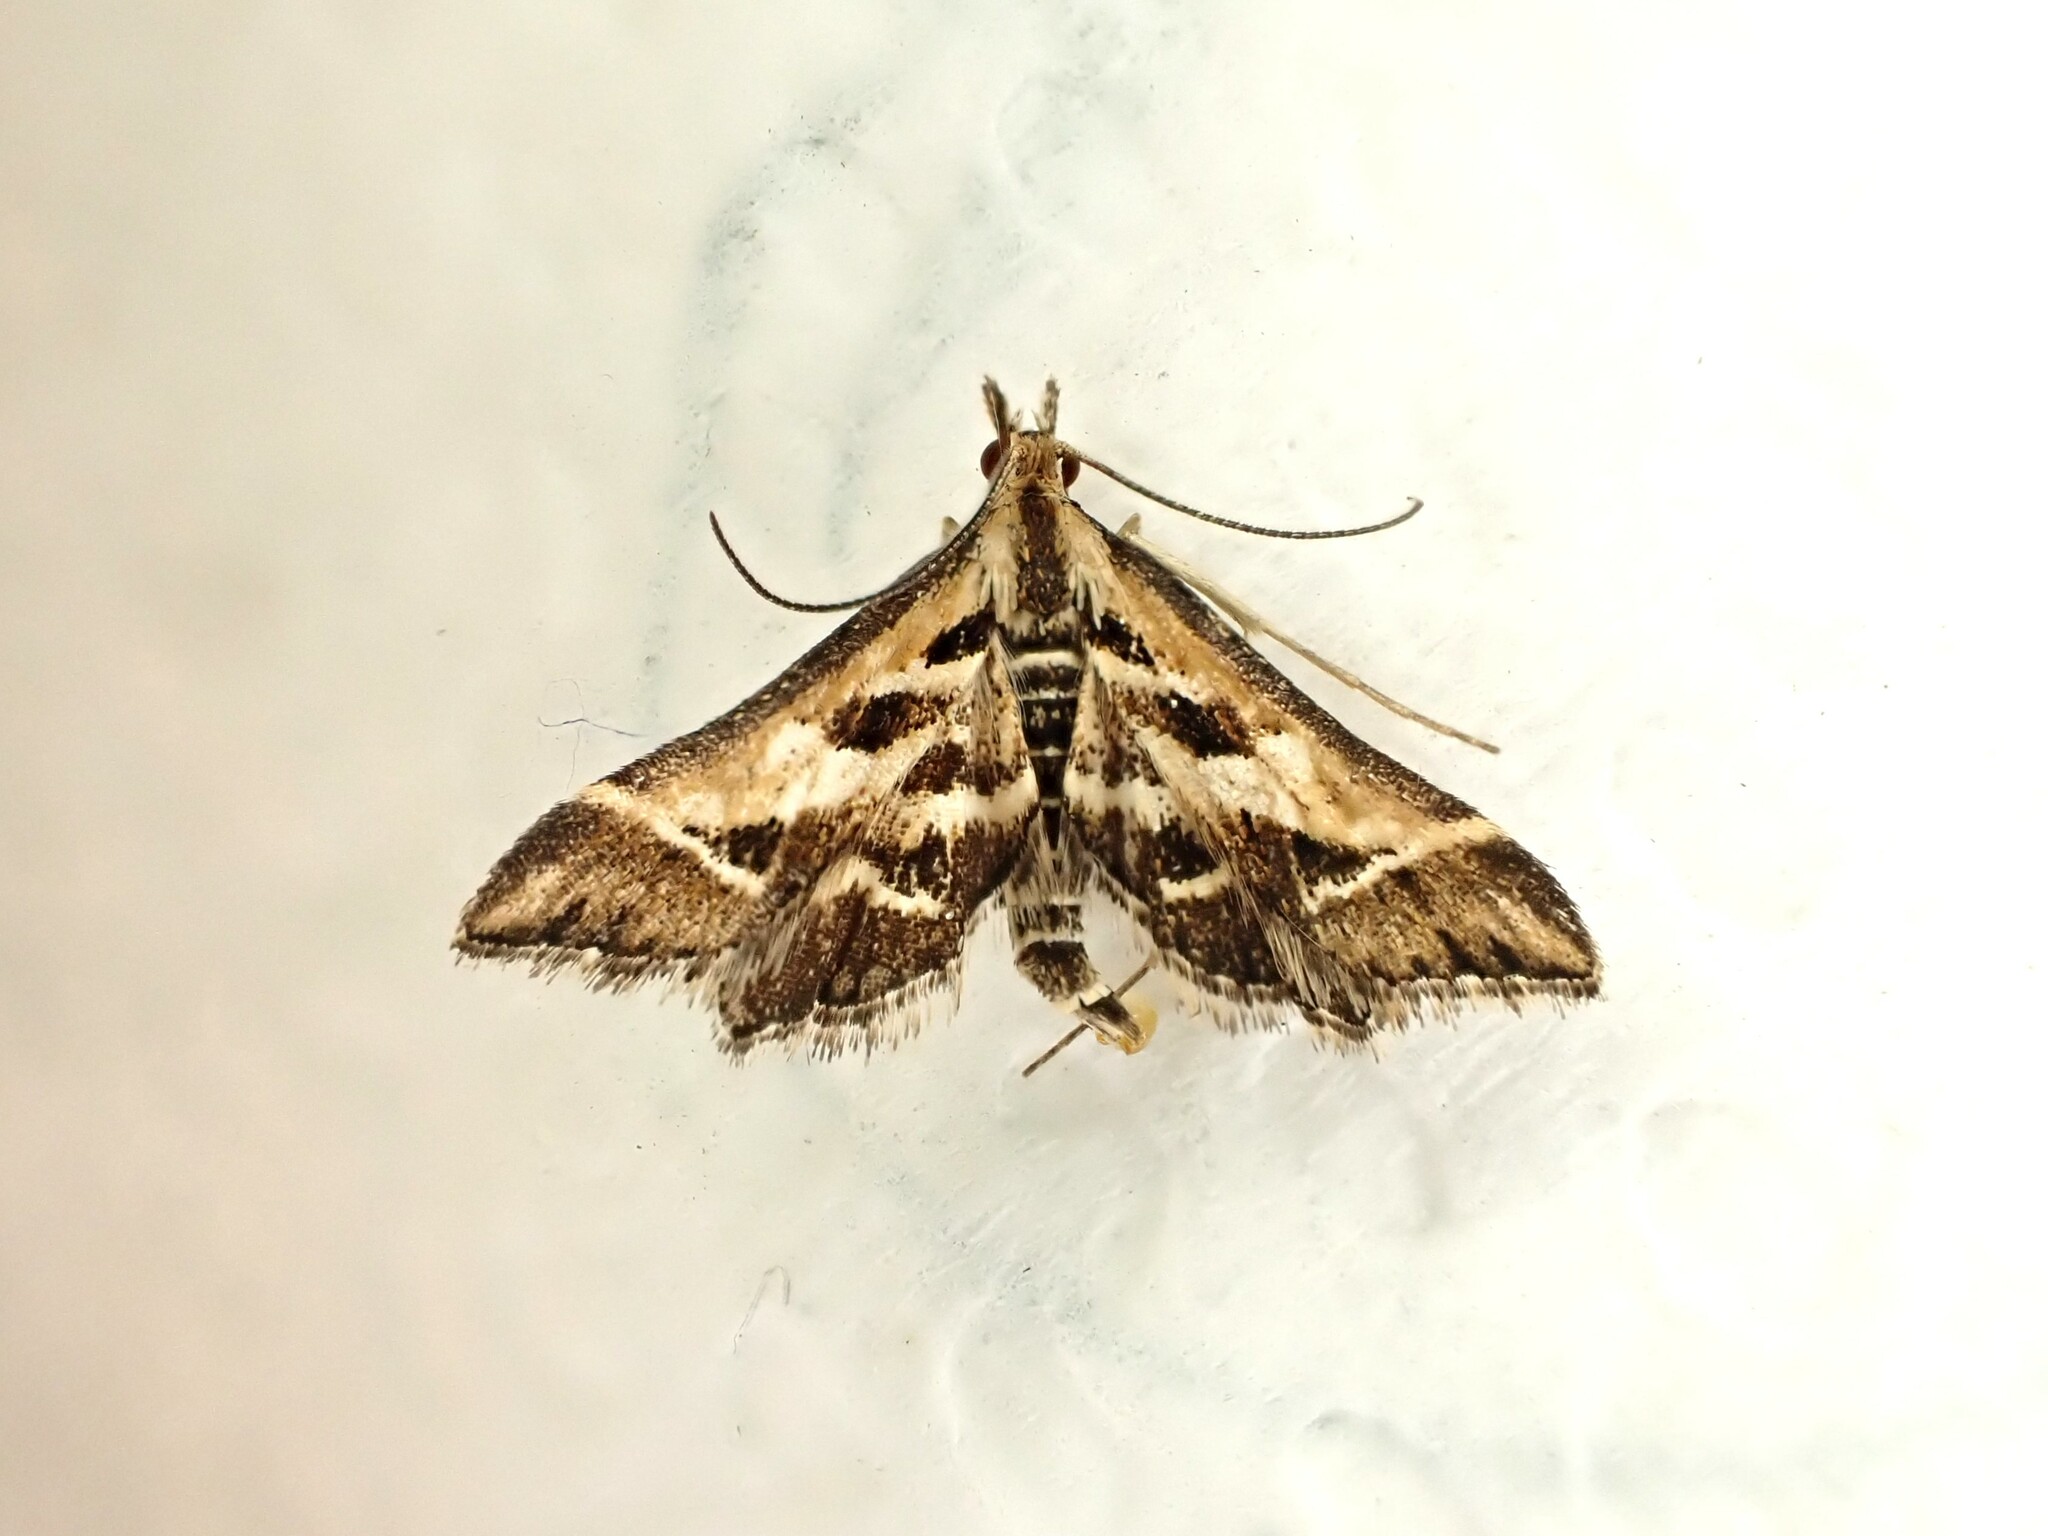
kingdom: Animalia
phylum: Arthropoda
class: Insecta
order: Lepidoptera
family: Crambidae
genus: Diasemia
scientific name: Diasemia grammalis
